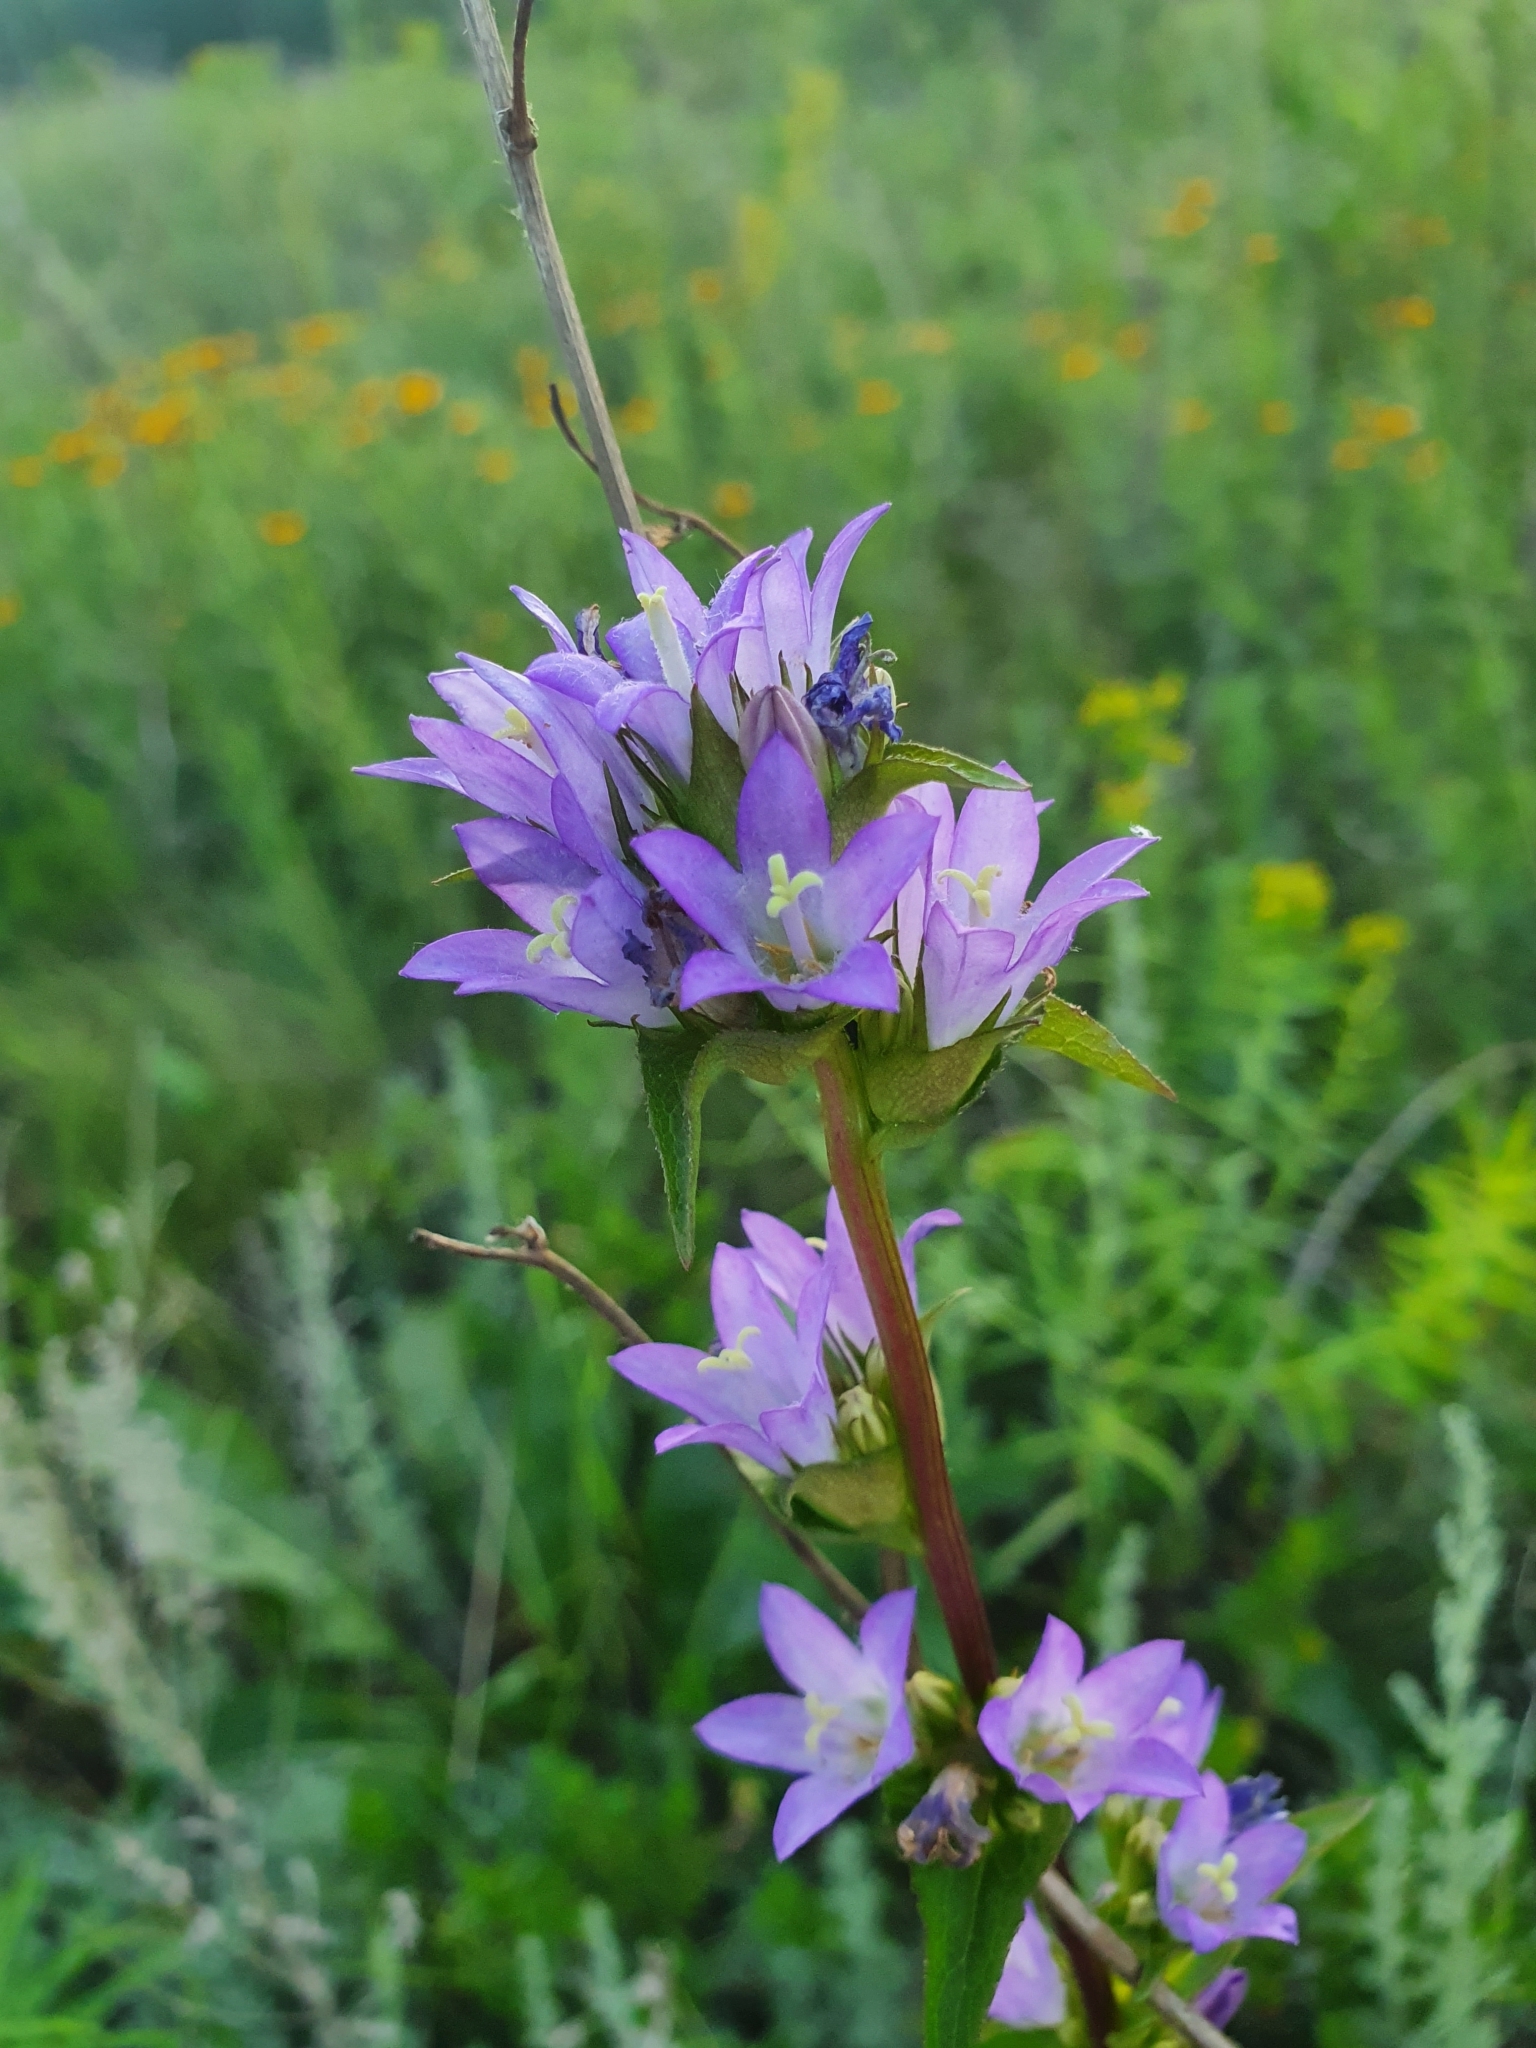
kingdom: Plantae
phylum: Tracheophyta
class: Magnoliopsida
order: Asterales
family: Campanulaceae
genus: Campanula
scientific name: Campanula glomerata
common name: Clustered bellflower
